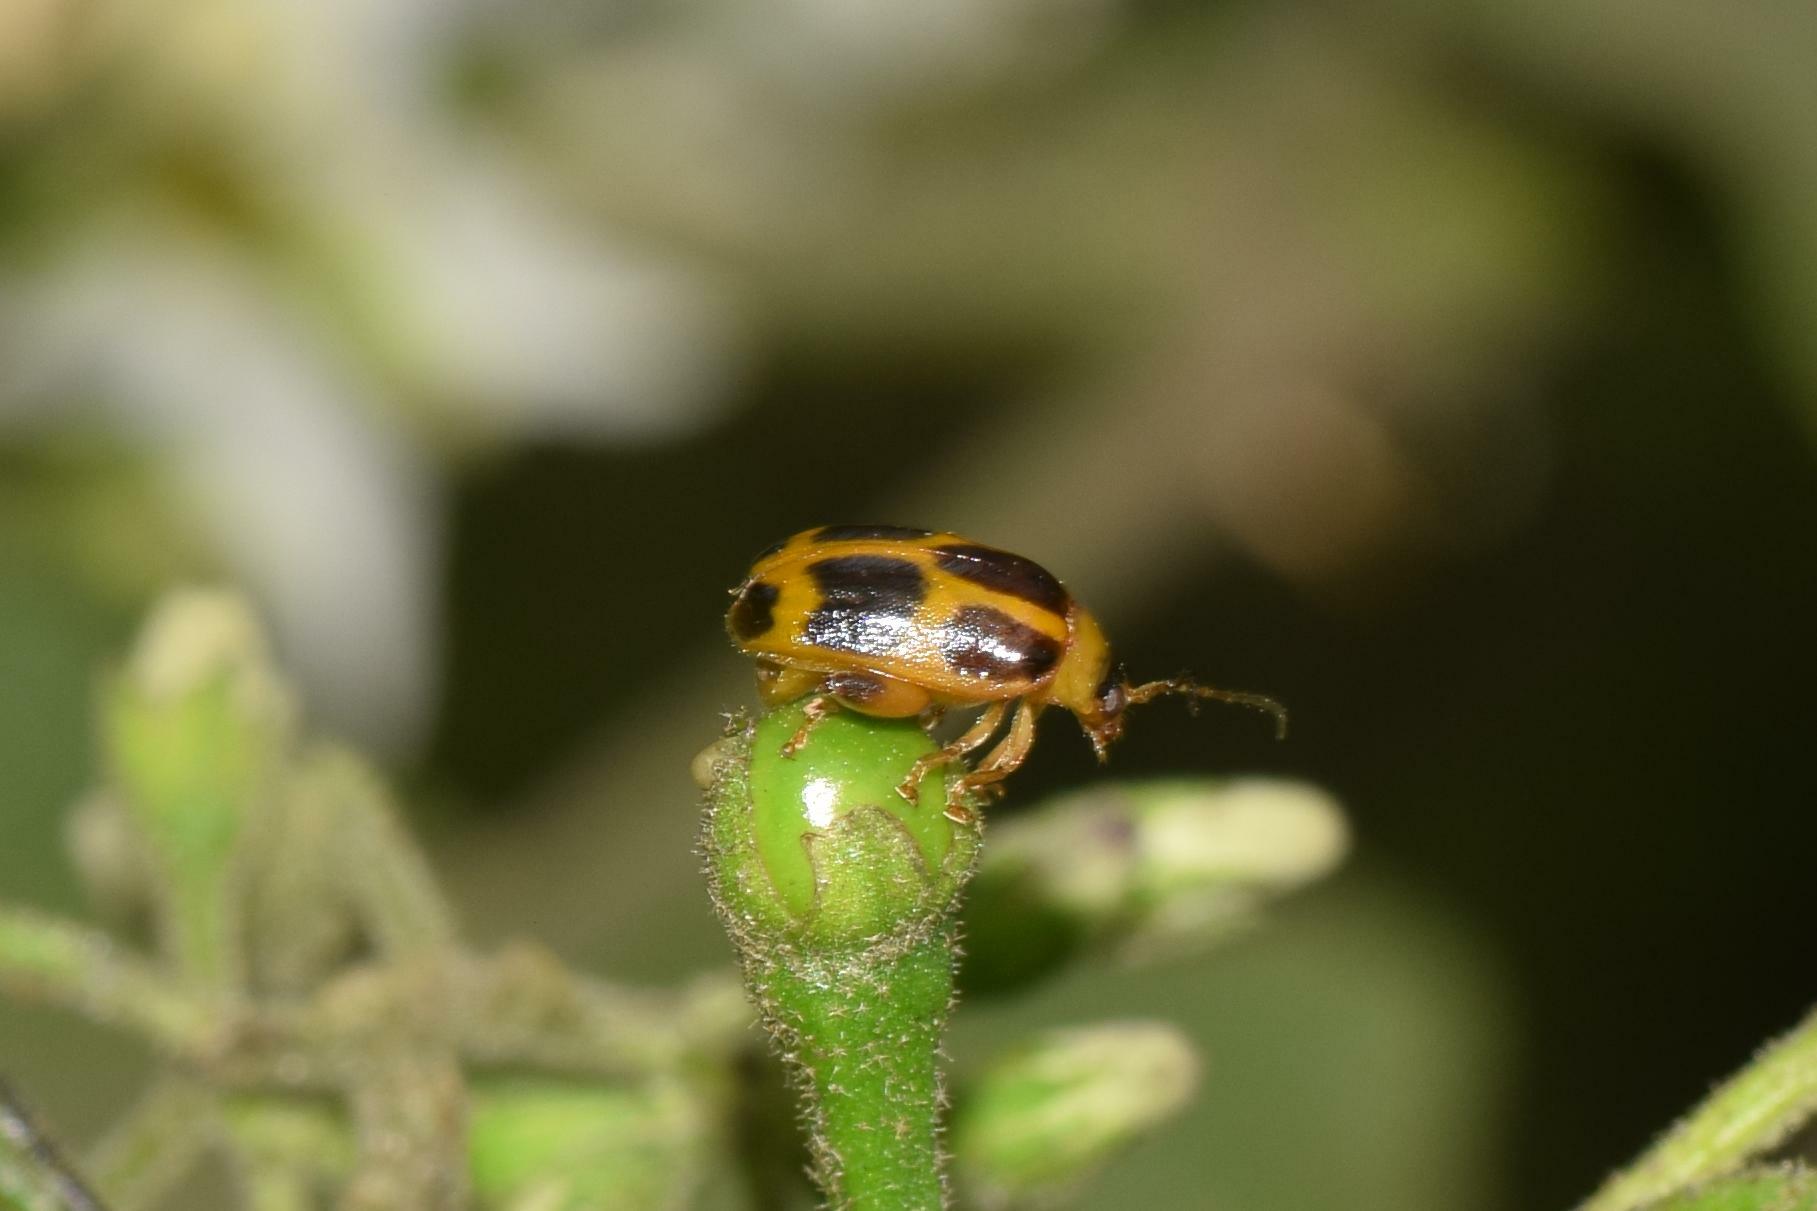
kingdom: Animalia
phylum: Arthropoda
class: Insecta
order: Coleoptera
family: Chrysomelidae
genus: Hyphasis
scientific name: Hyphasis
